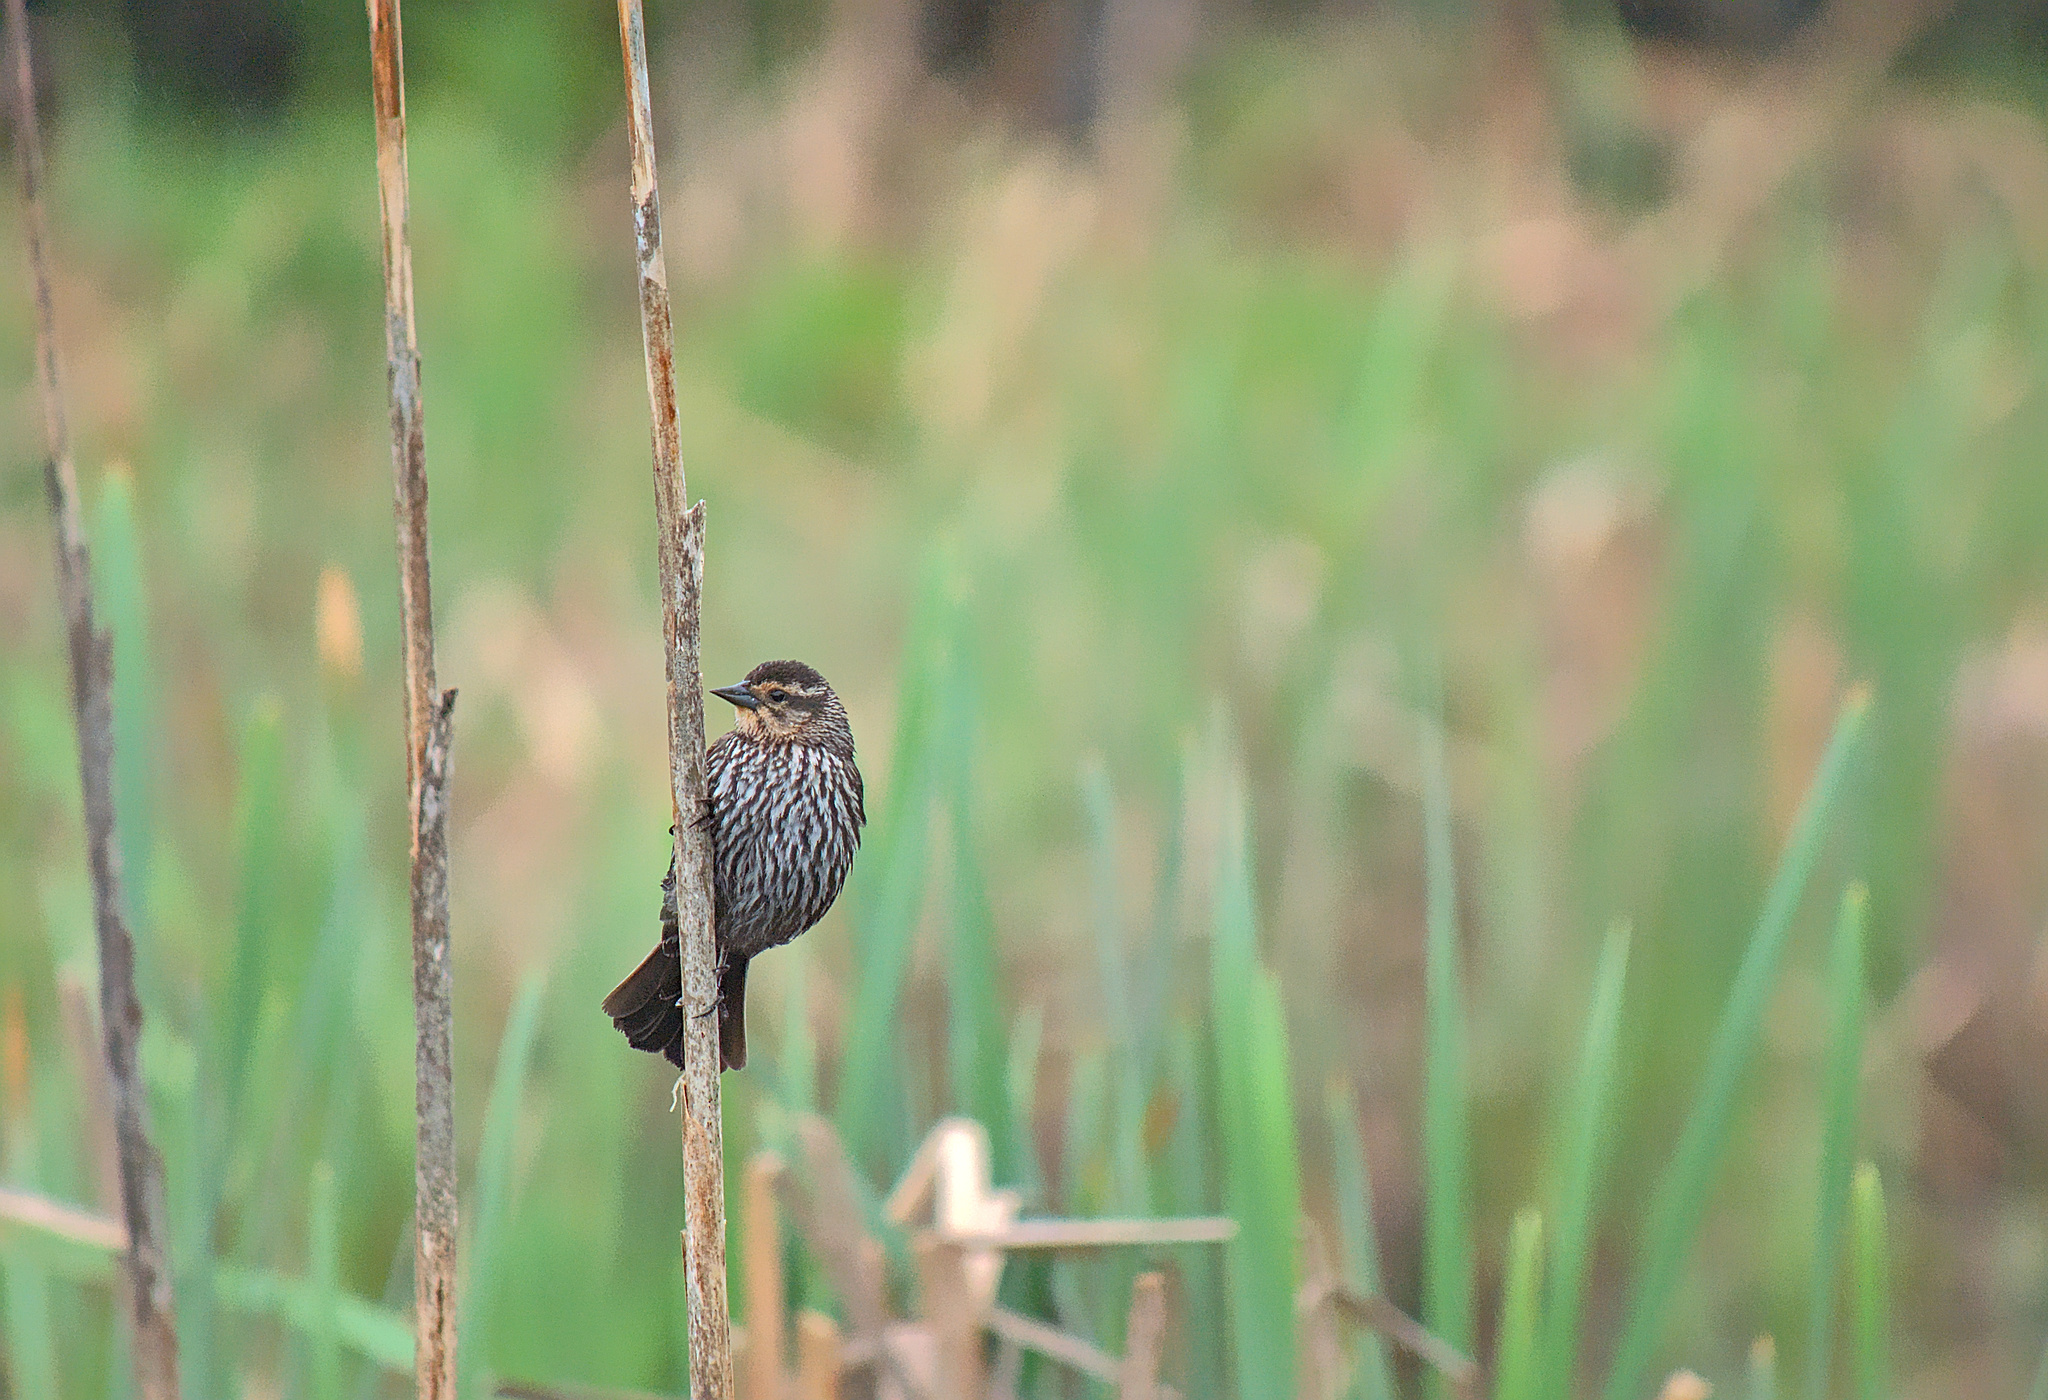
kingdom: Animalia
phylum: Chordata
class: Aves
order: Passeriformes
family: Icteridae
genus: Agelaius
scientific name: Agelaius phoeniceus
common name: Red-winged blackbird
